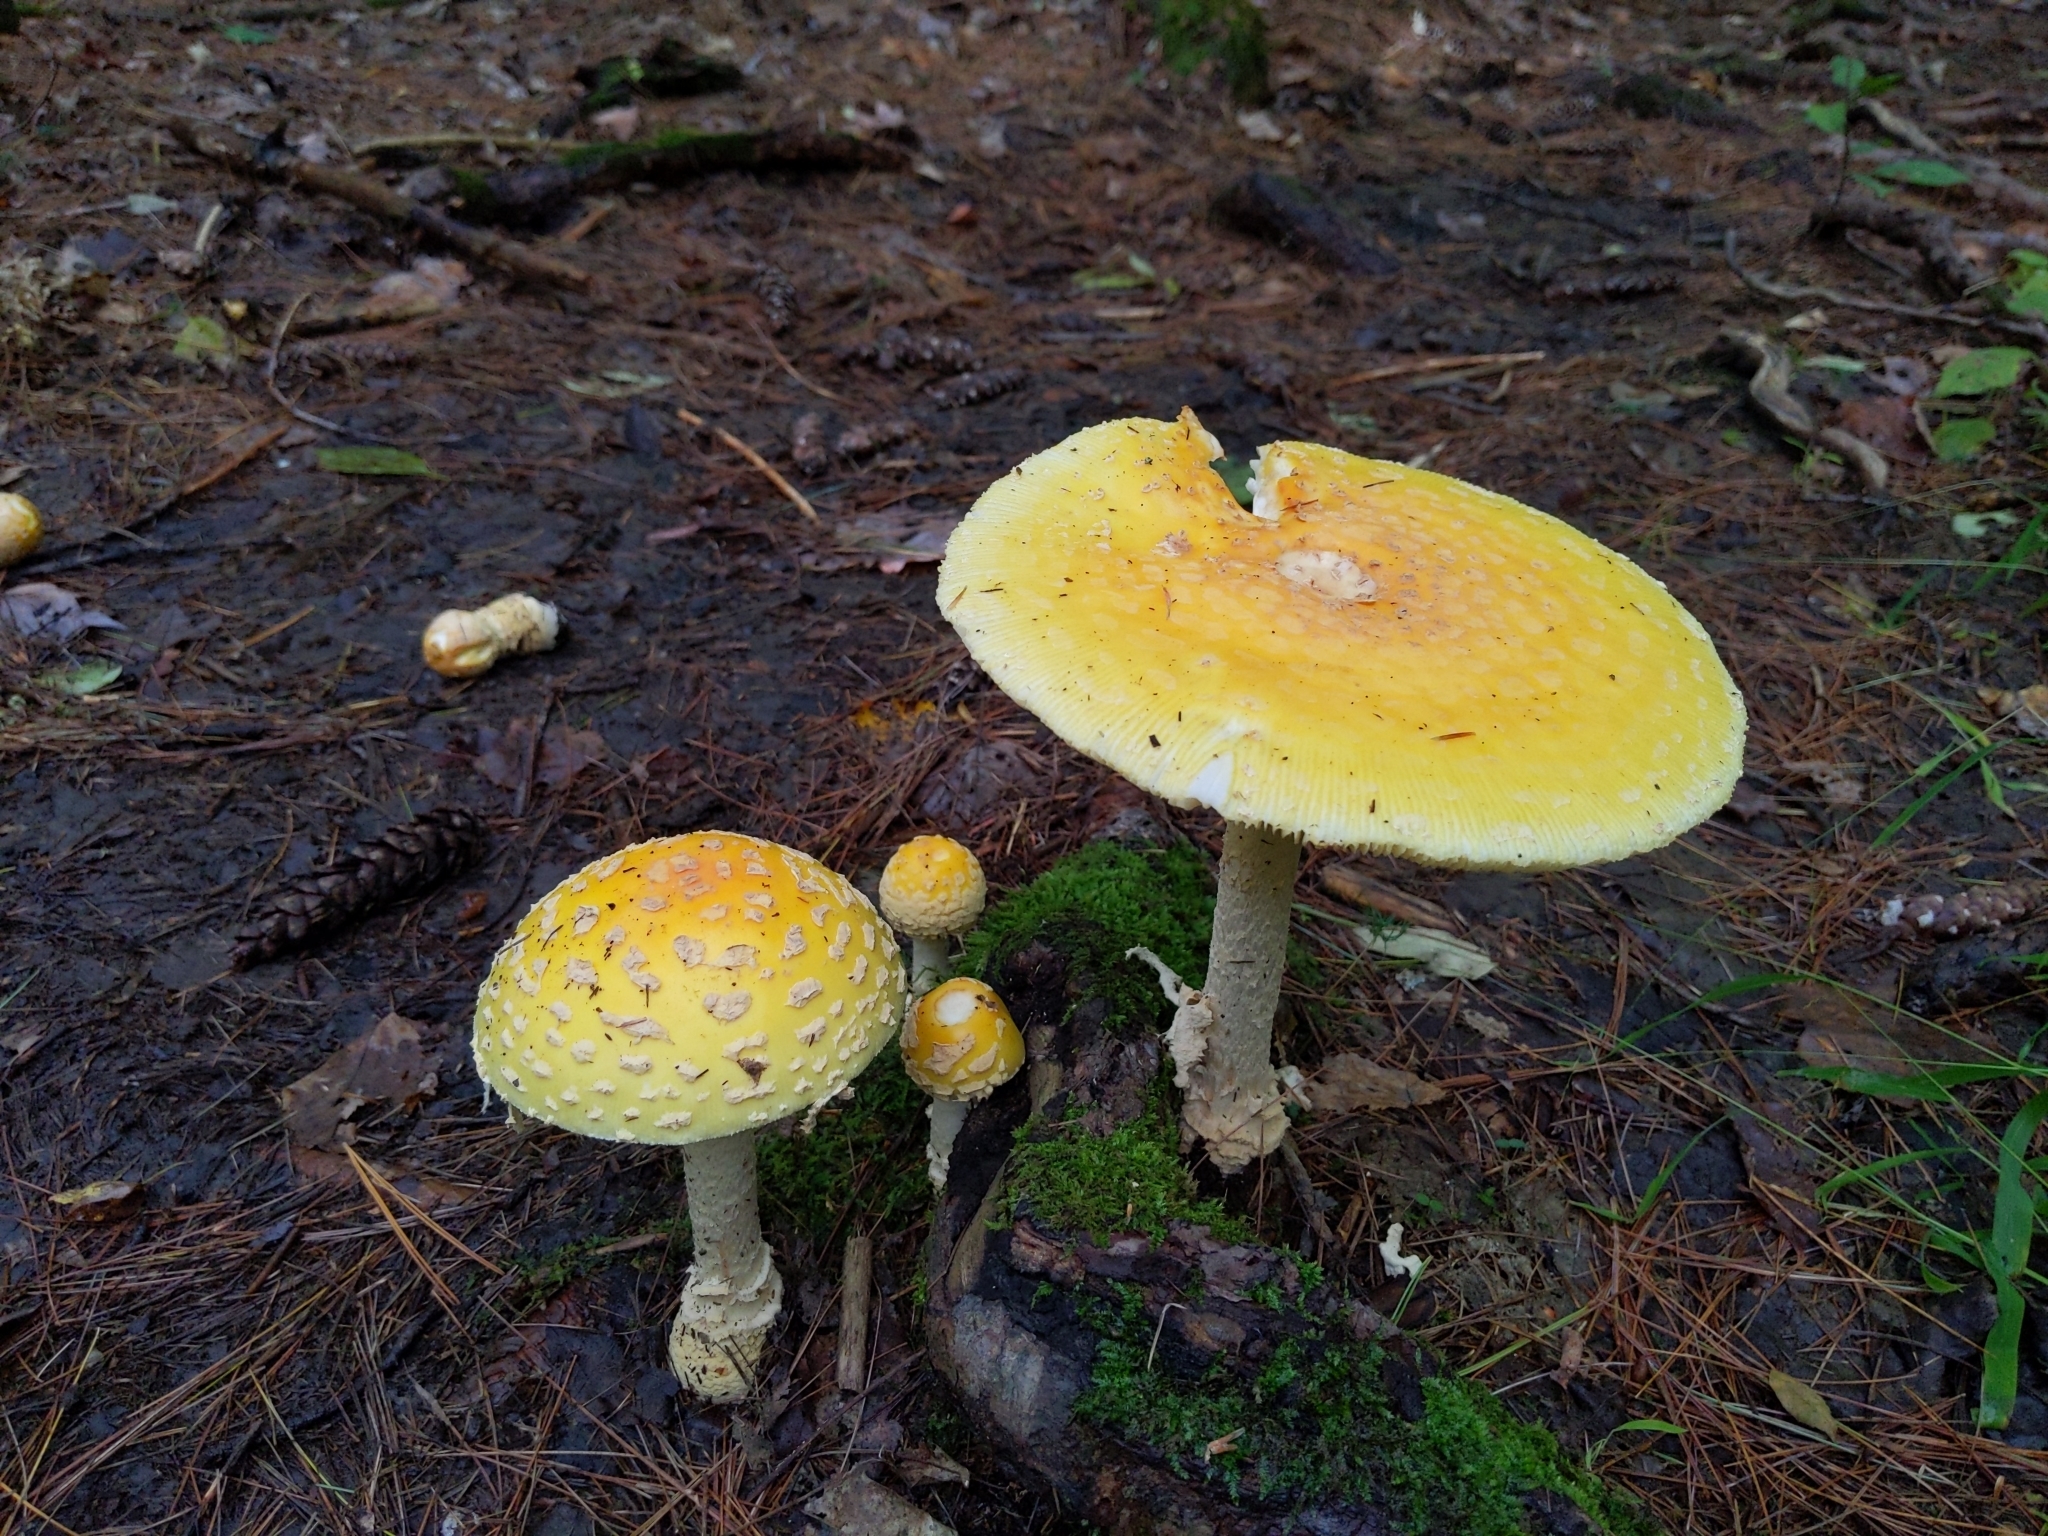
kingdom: Fungi
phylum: Basidiomycota
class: Agaricomycetes
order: Agaricales
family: Amanitaceae
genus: Amanita
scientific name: Amanita muscaria
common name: Fly agaric
